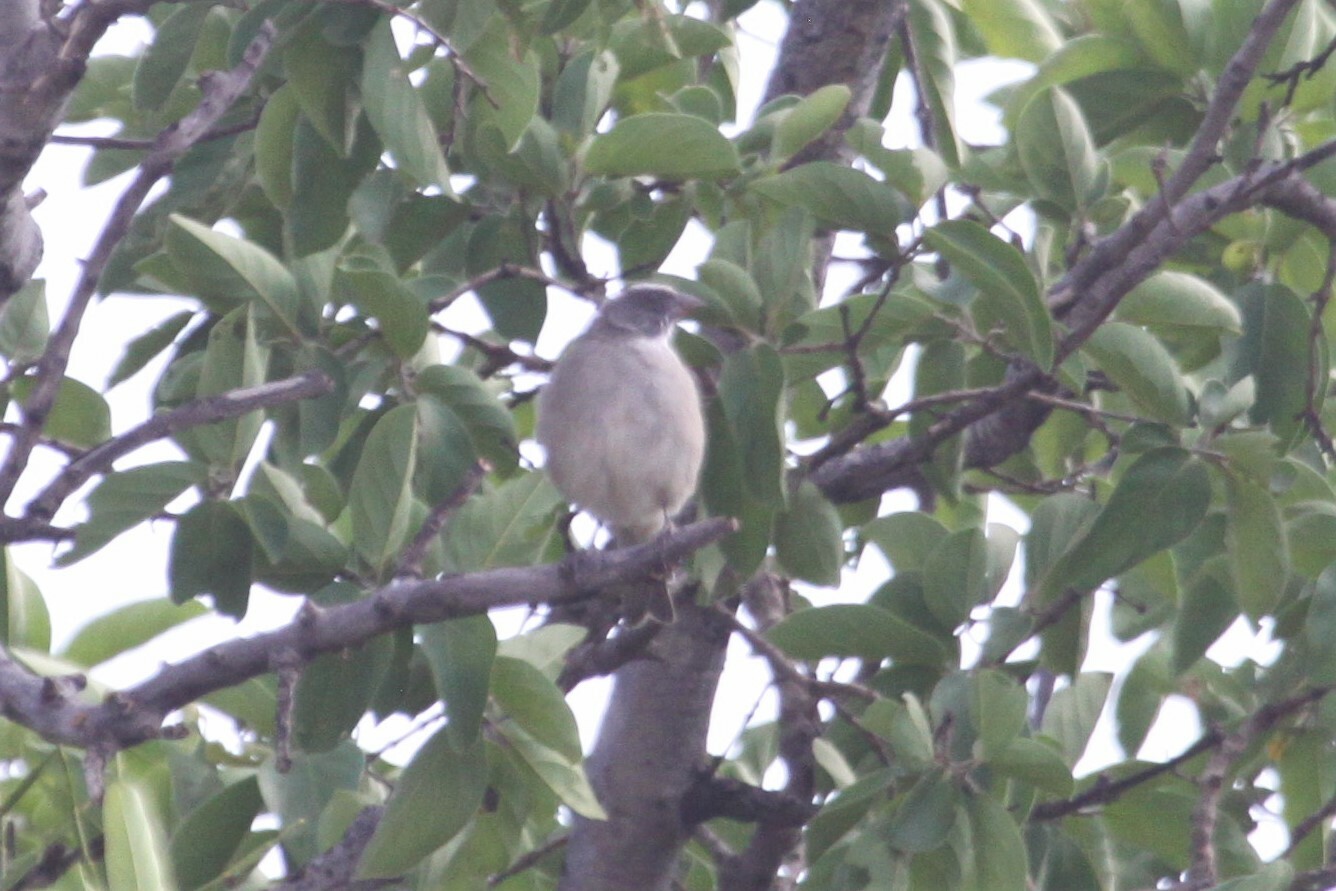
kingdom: Animalia
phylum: Chordata
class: Aves
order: Passeriformes
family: Fringillidae
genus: Crithagra
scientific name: Crithagra gularis
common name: Streaky-headed seedeater
